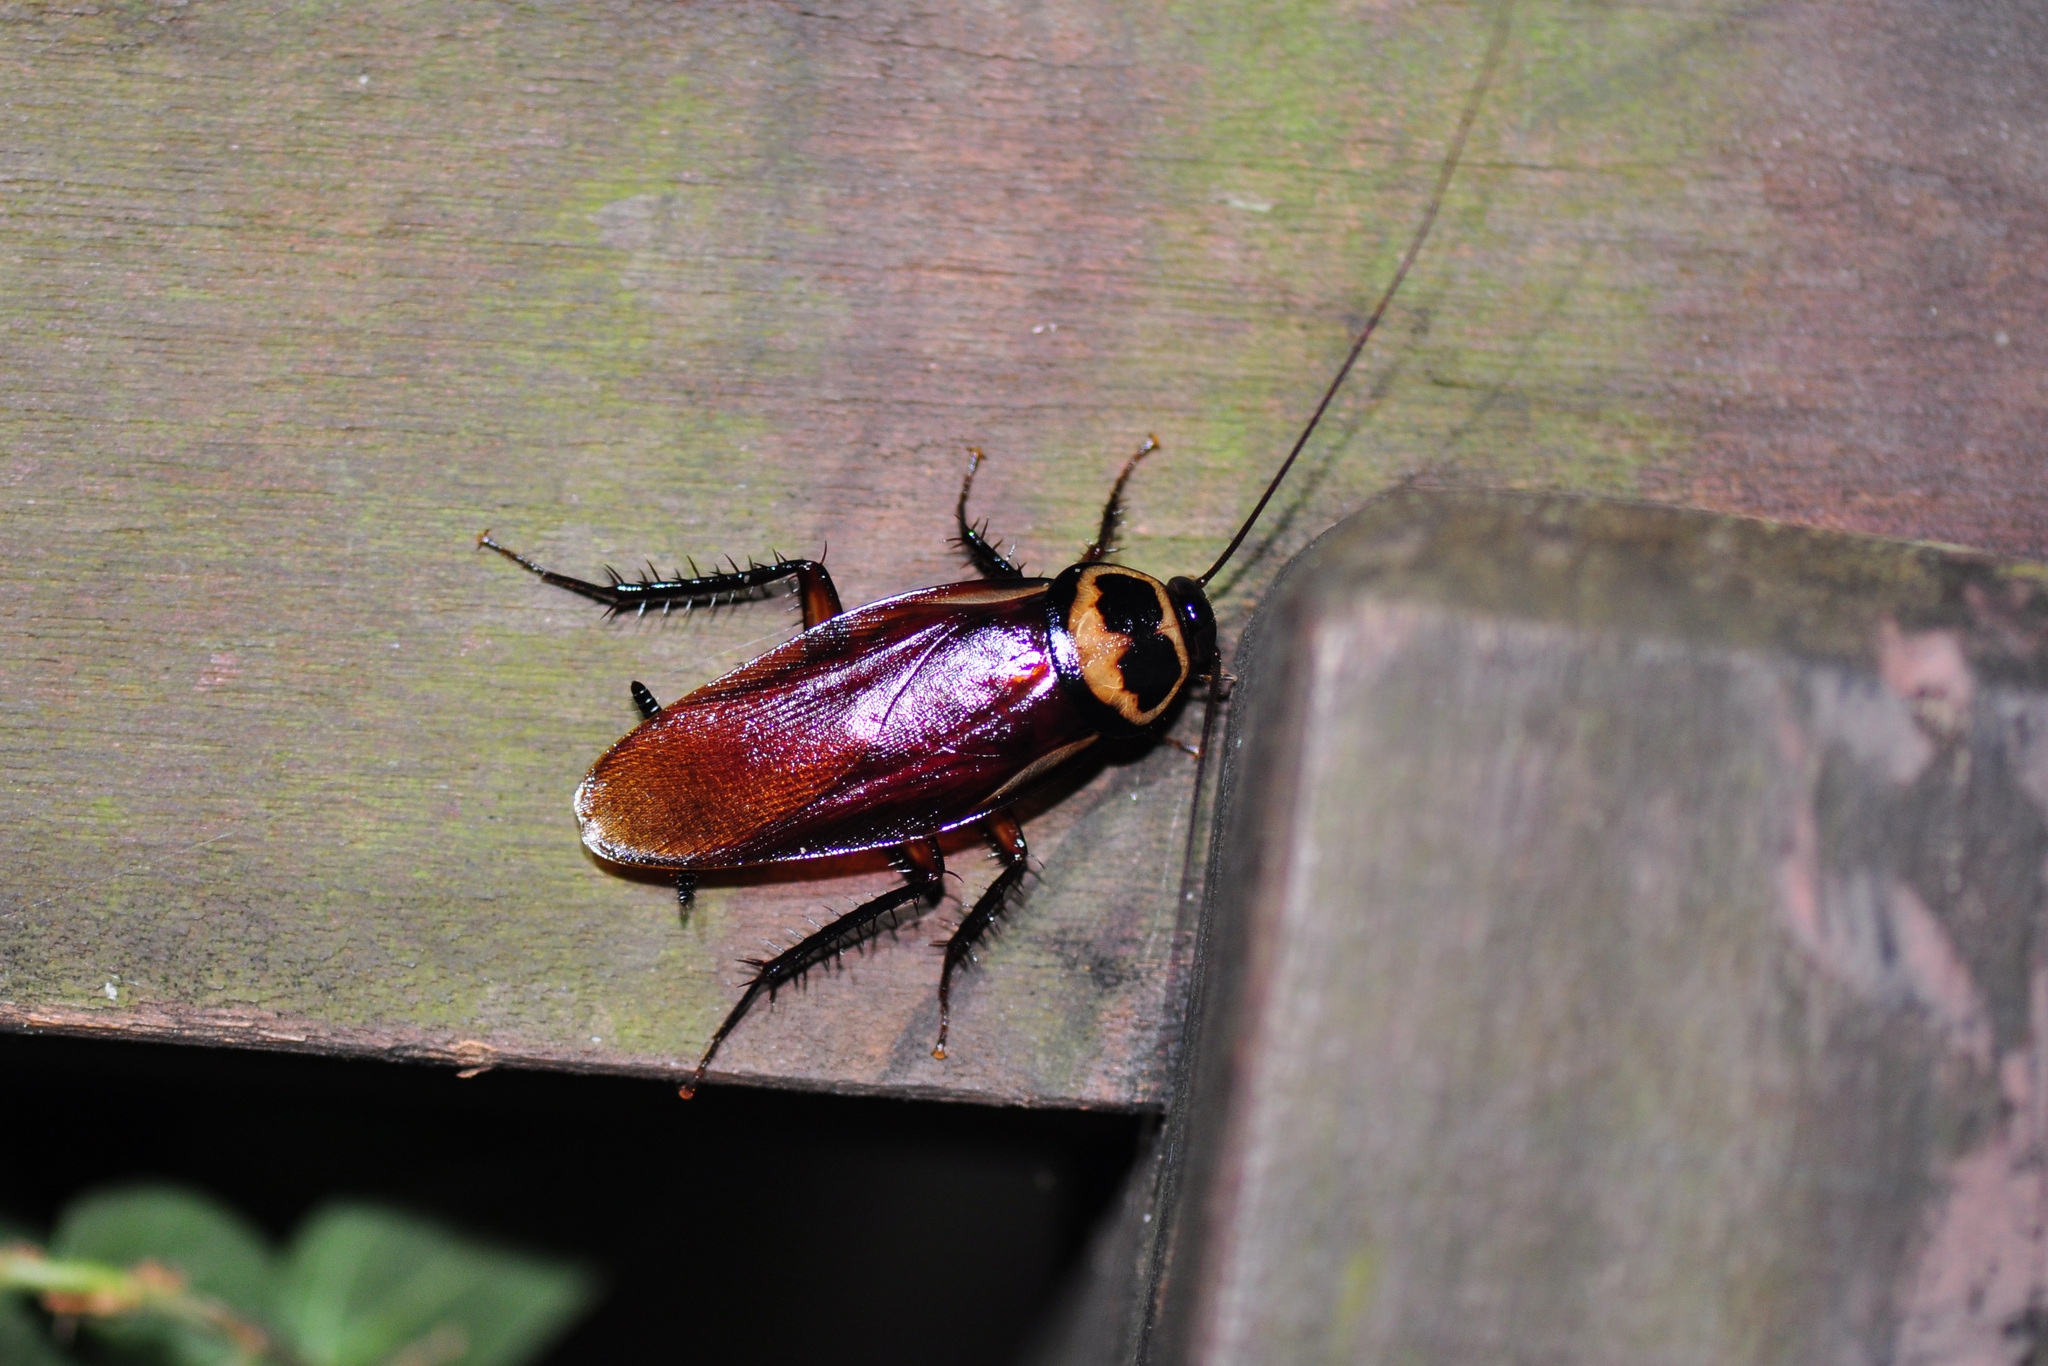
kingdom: Animalia
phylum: Arthropoda
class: Insecta
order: Blattodea
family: Blattidae
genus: Periplaneta
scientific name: Periplaneta australasiae
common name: Australian cockroach
